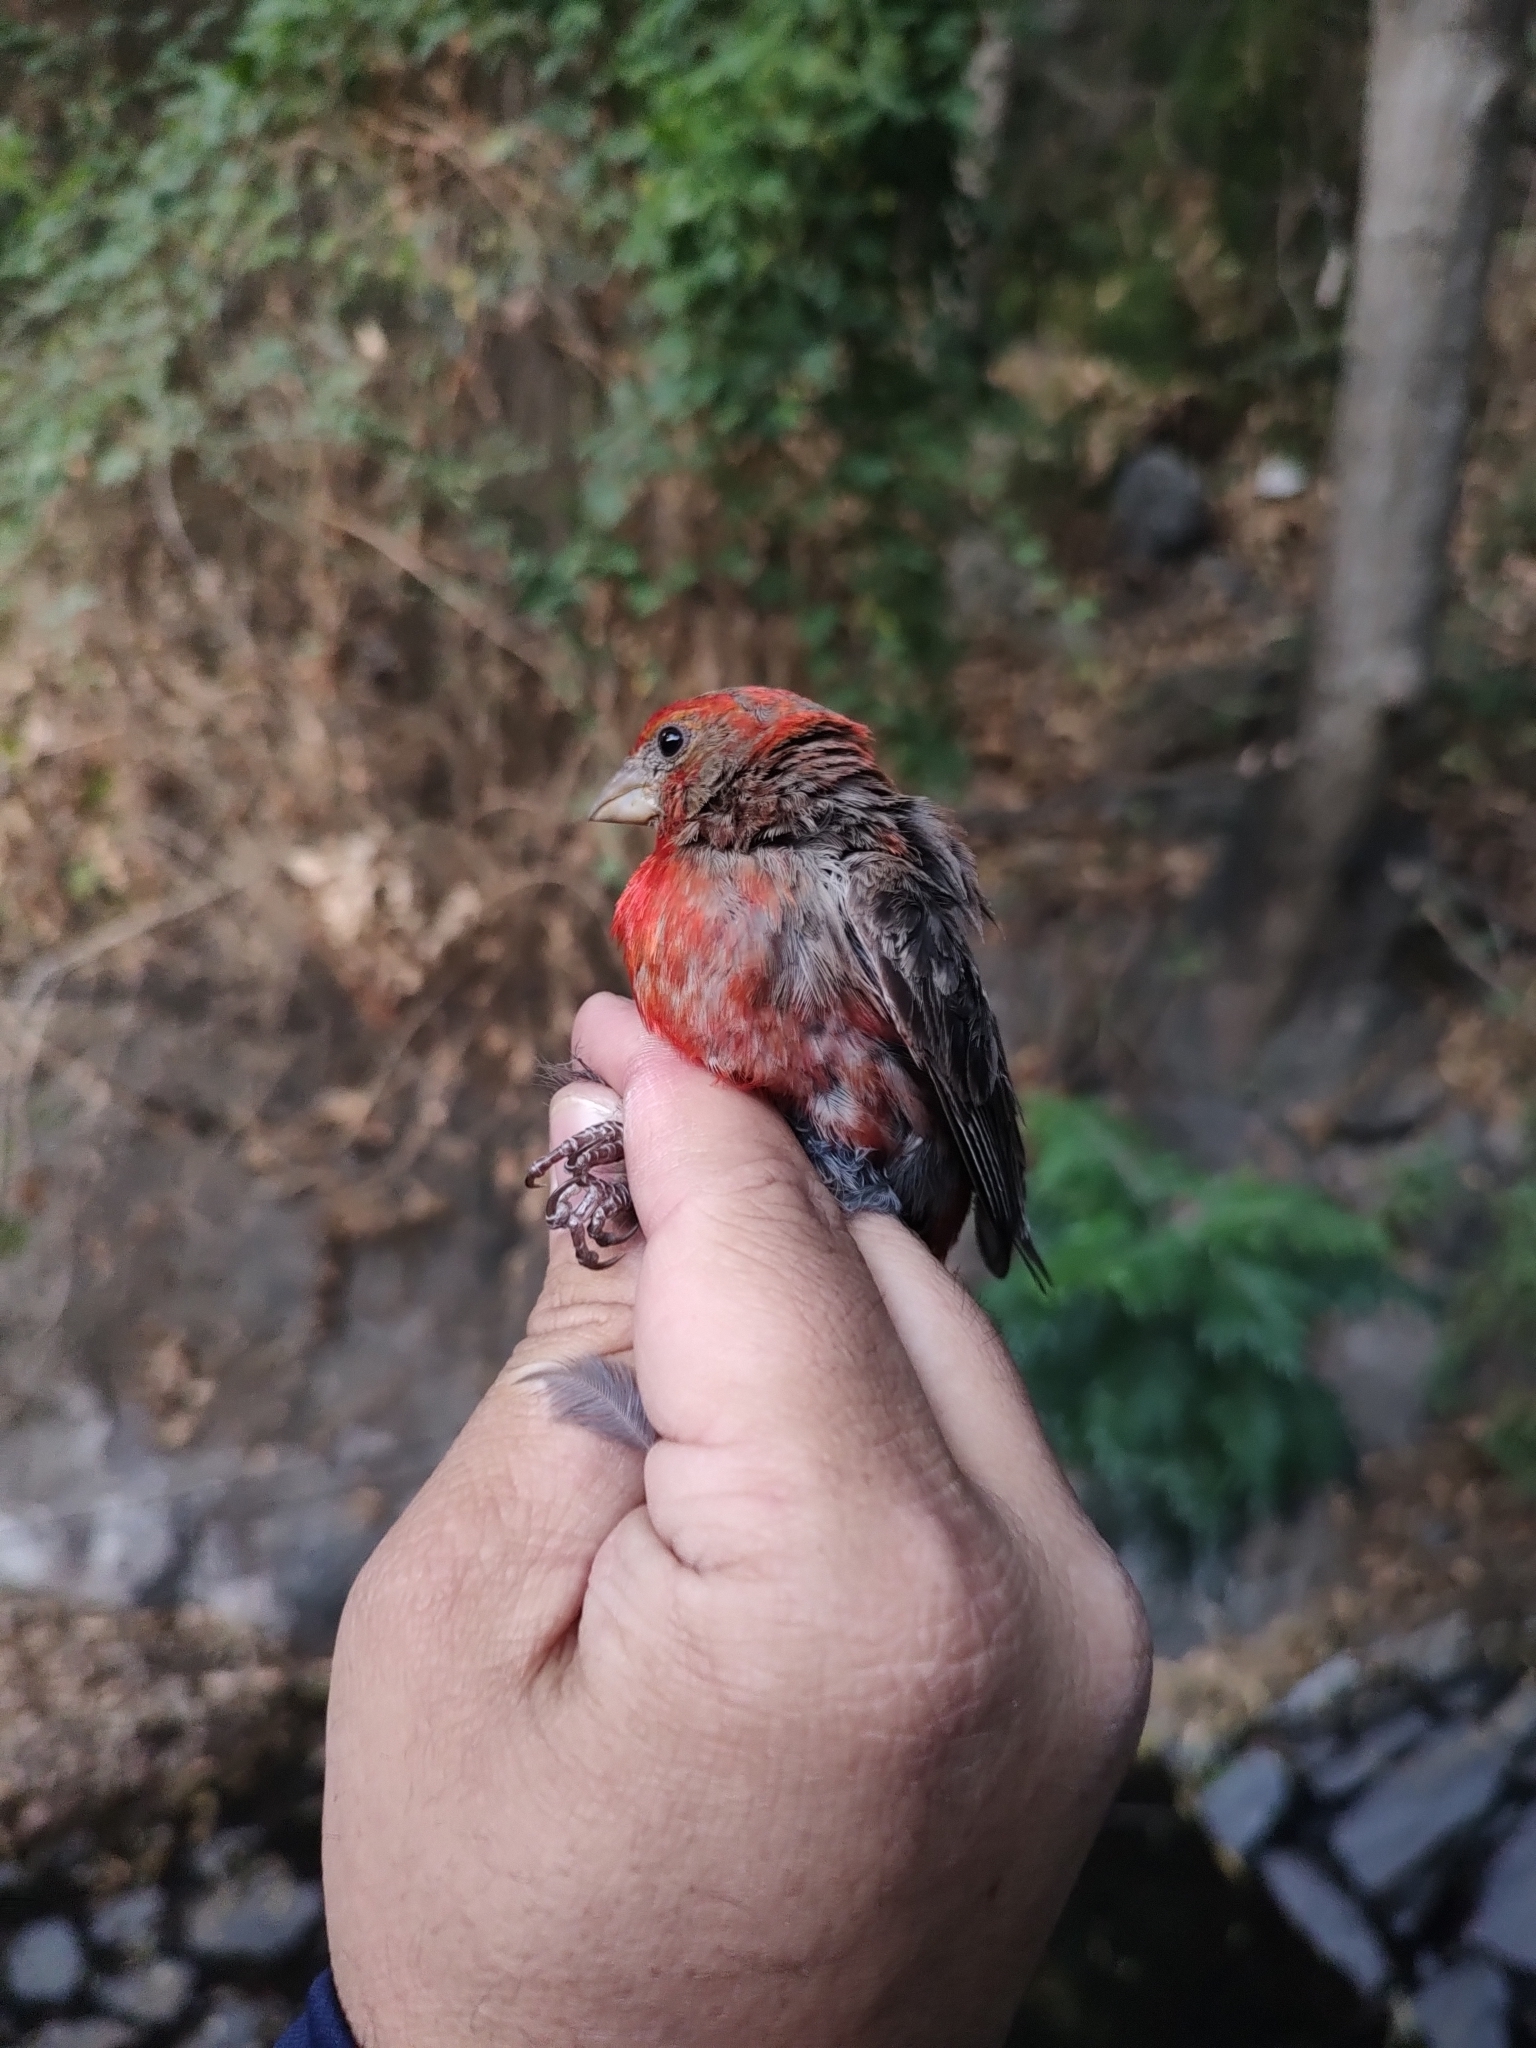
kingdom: Animalia
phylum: Chordata
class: Aves
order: Passeriformes
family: Fringillidae
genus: Haemorhous
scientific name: Haemorhous mexicanus
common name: House finch
